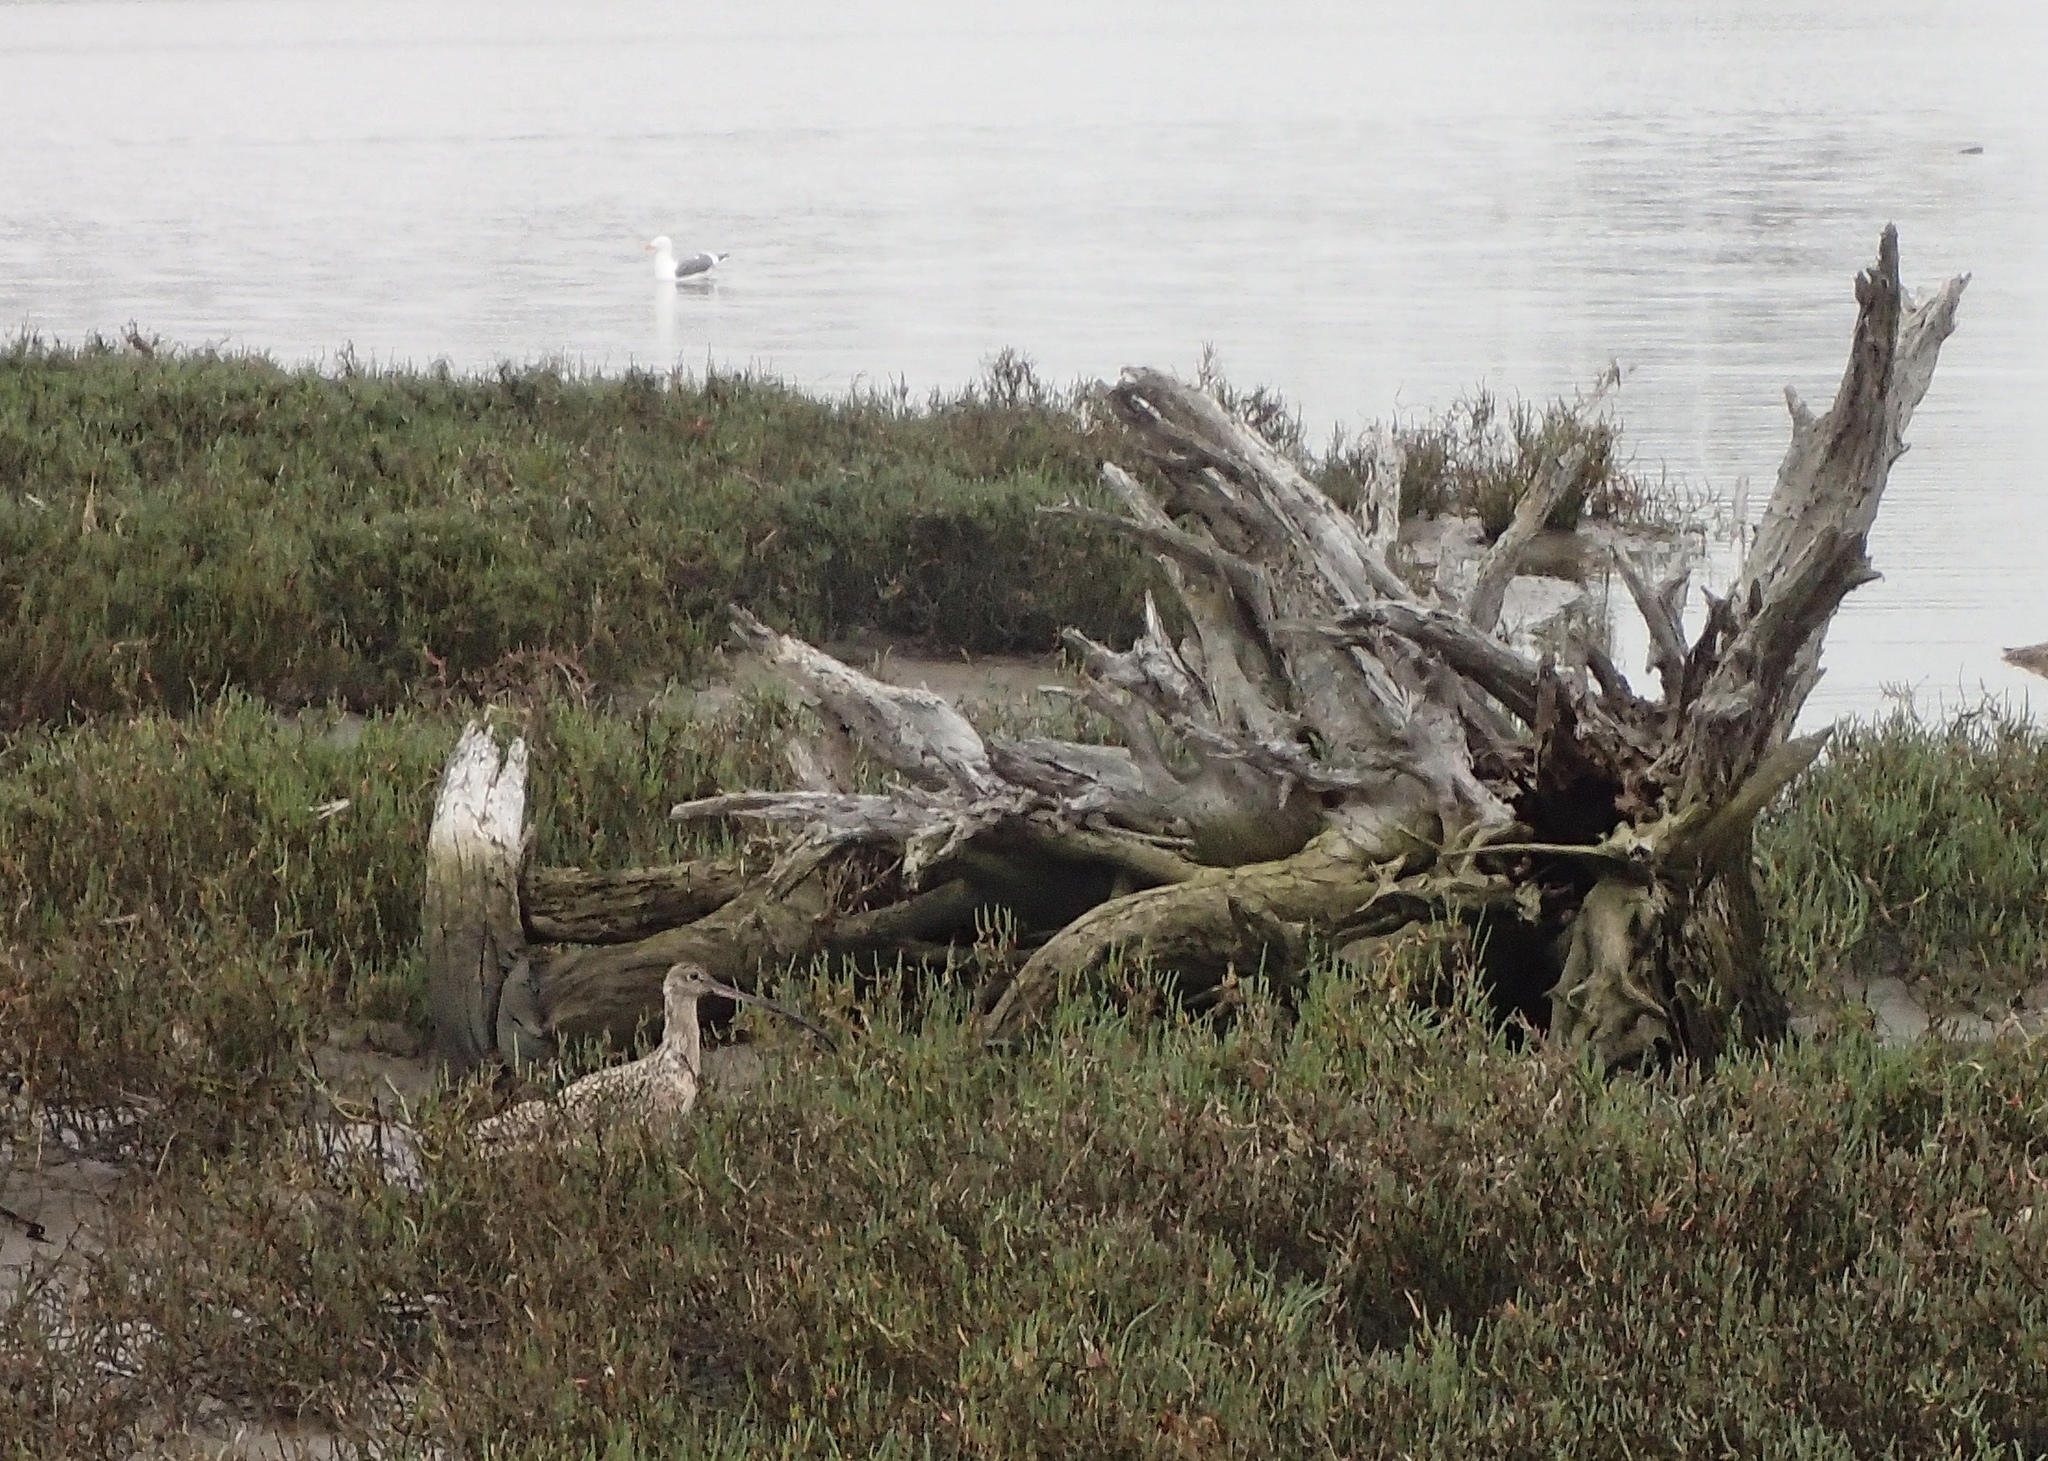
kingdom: Animalia
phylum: Chordata
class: Aves
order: Charadriiformes
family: Scolopacidae
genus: Numenius
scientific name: Numenius americanus
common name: Long-billed curlew
